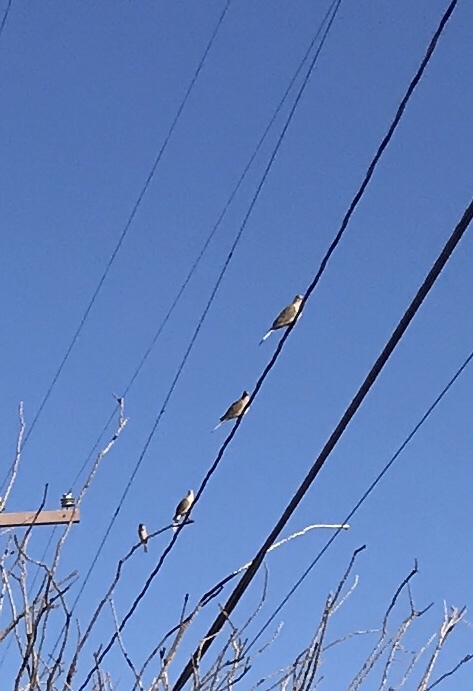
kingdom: Animalia
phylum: Chordata
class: Aves
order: Columbiformes
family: Columbidae
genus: Zenaida
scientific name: Zenaida macroura
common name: Mourning dove
